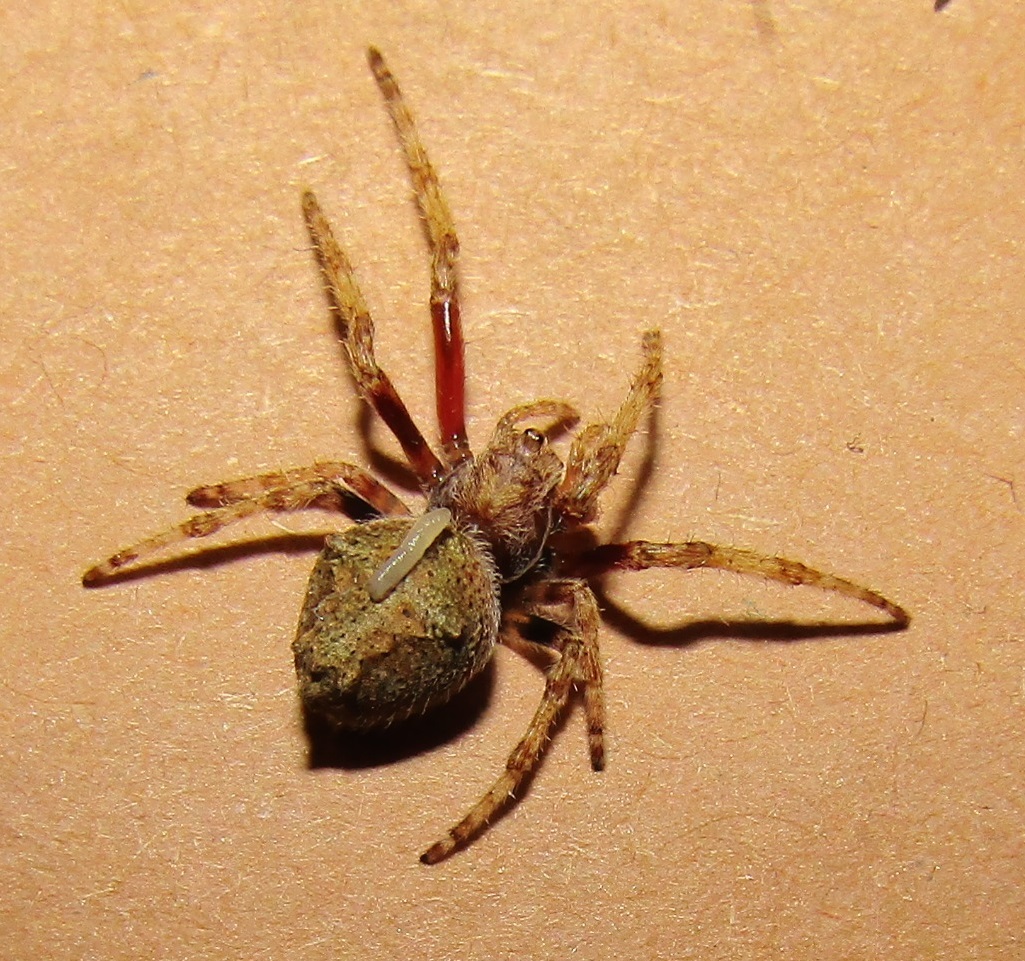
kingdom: Animalia
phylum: Arthropoda
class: Arachnida
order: Araneae
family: Araneidae
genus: Eriophora
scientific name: Eriophora pustulosa
